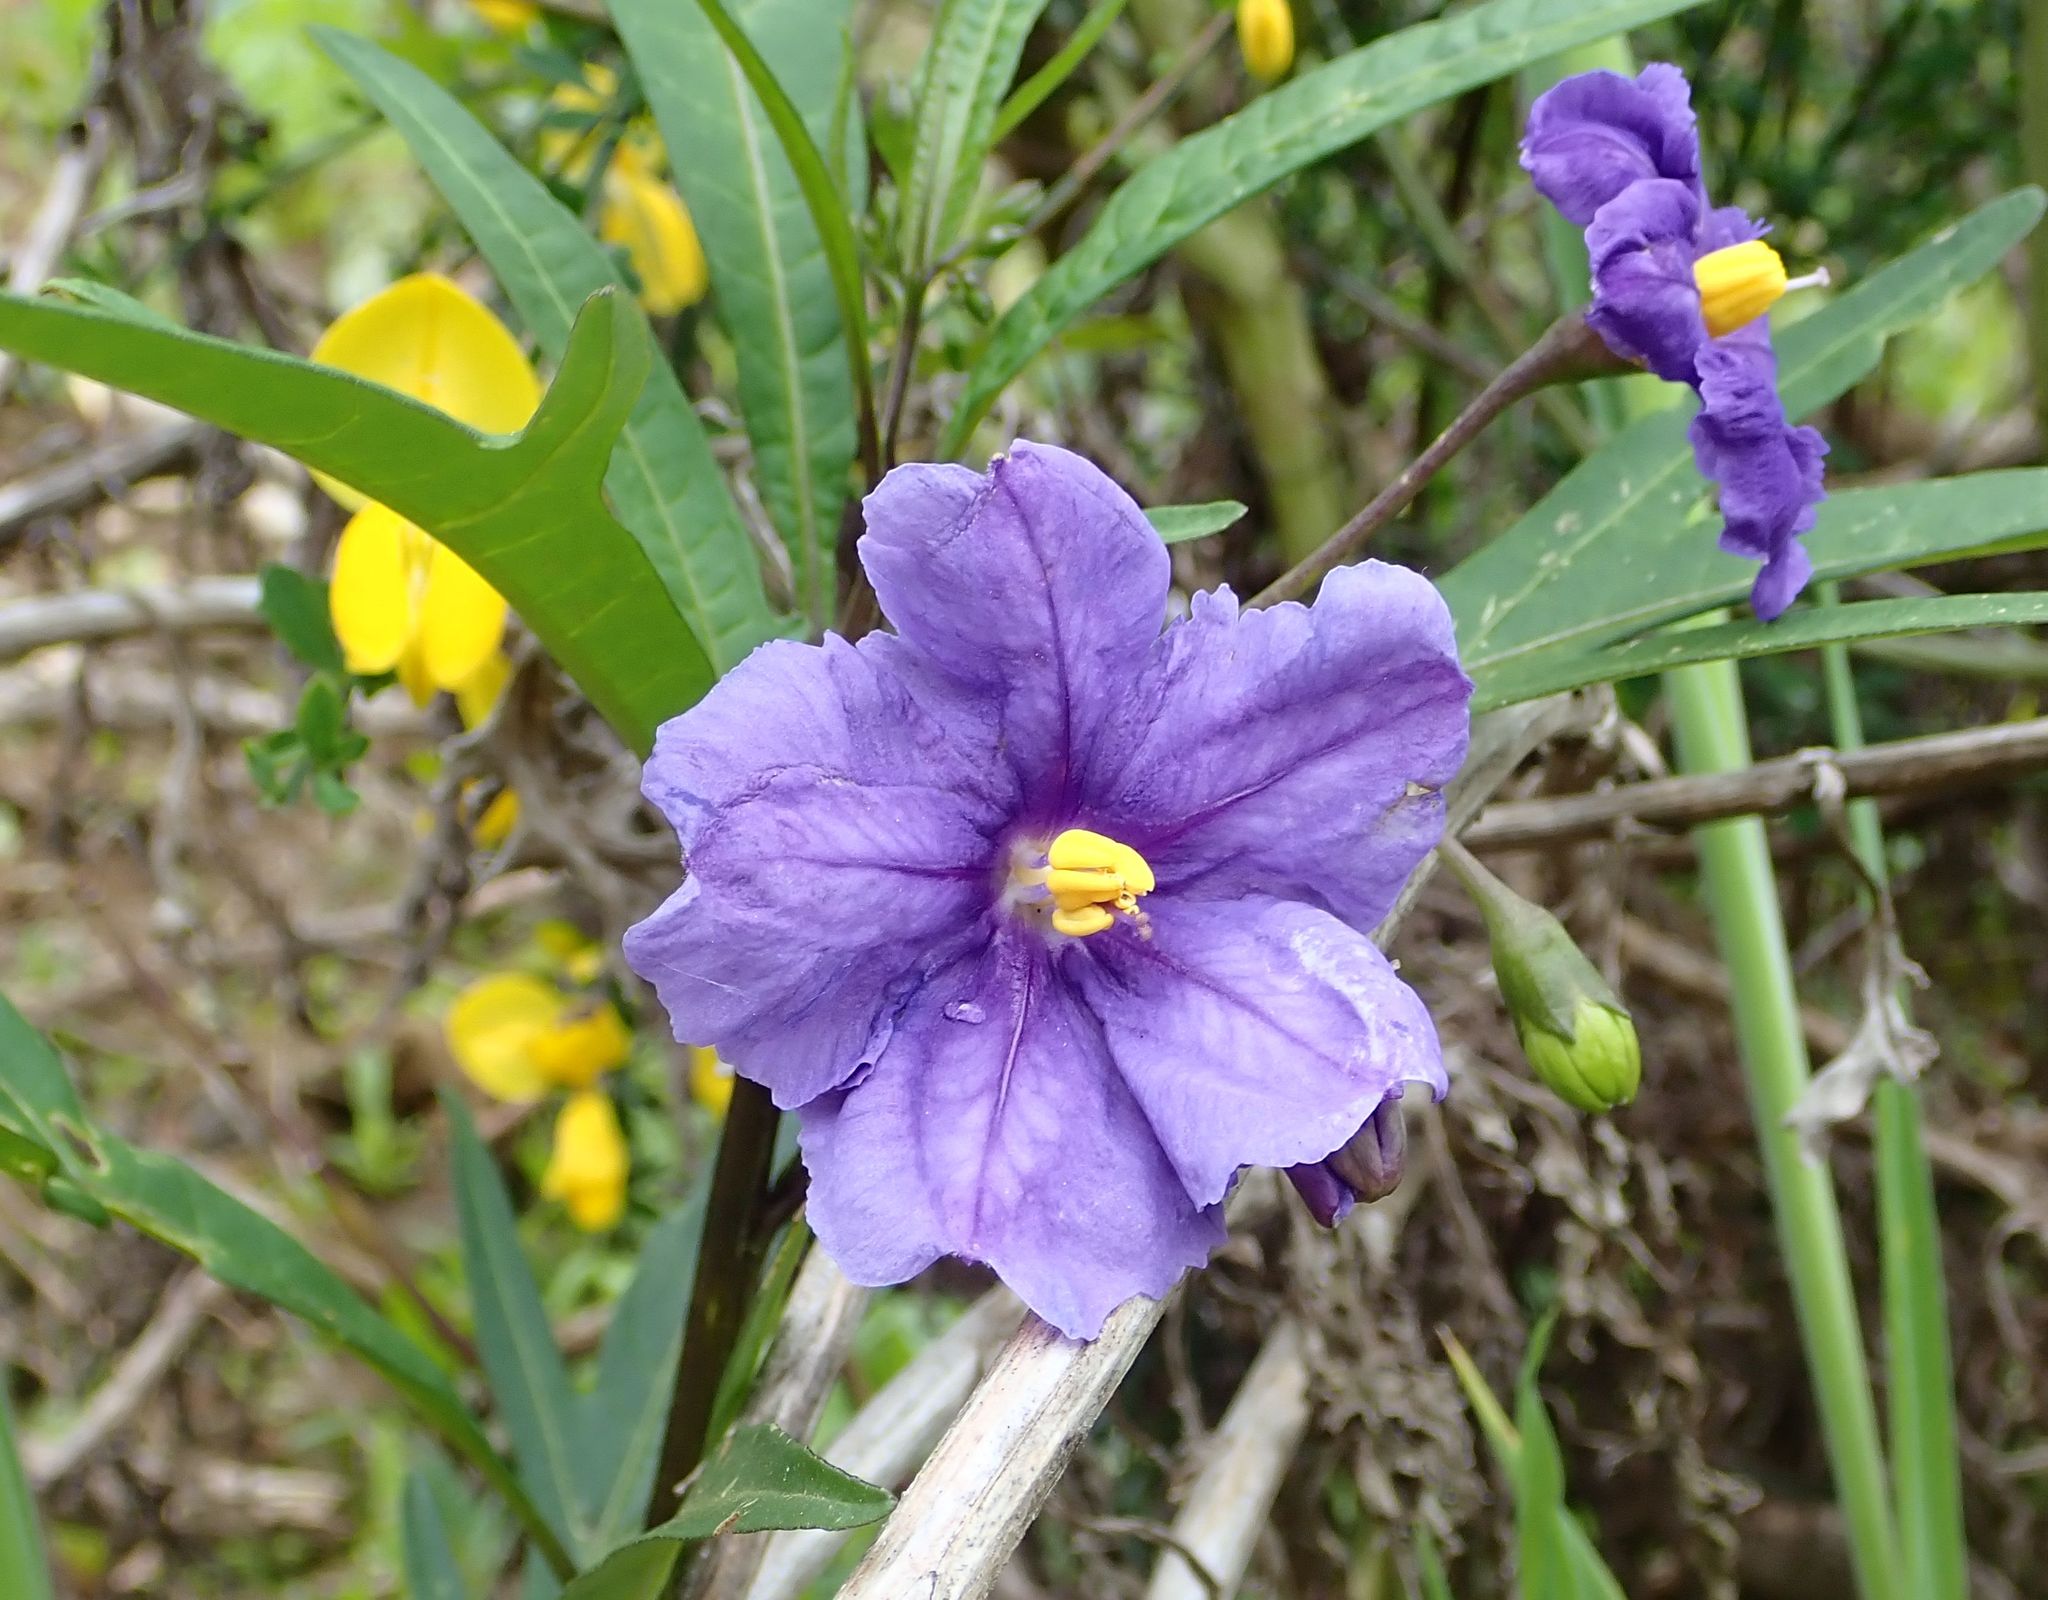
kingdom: Plantae
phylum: Tracheophyta
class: Magnoliopsida
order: Solanales
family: Solanaceae
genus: Solanum
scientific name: Solanum laciniatum
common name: Kangaroo-apple
